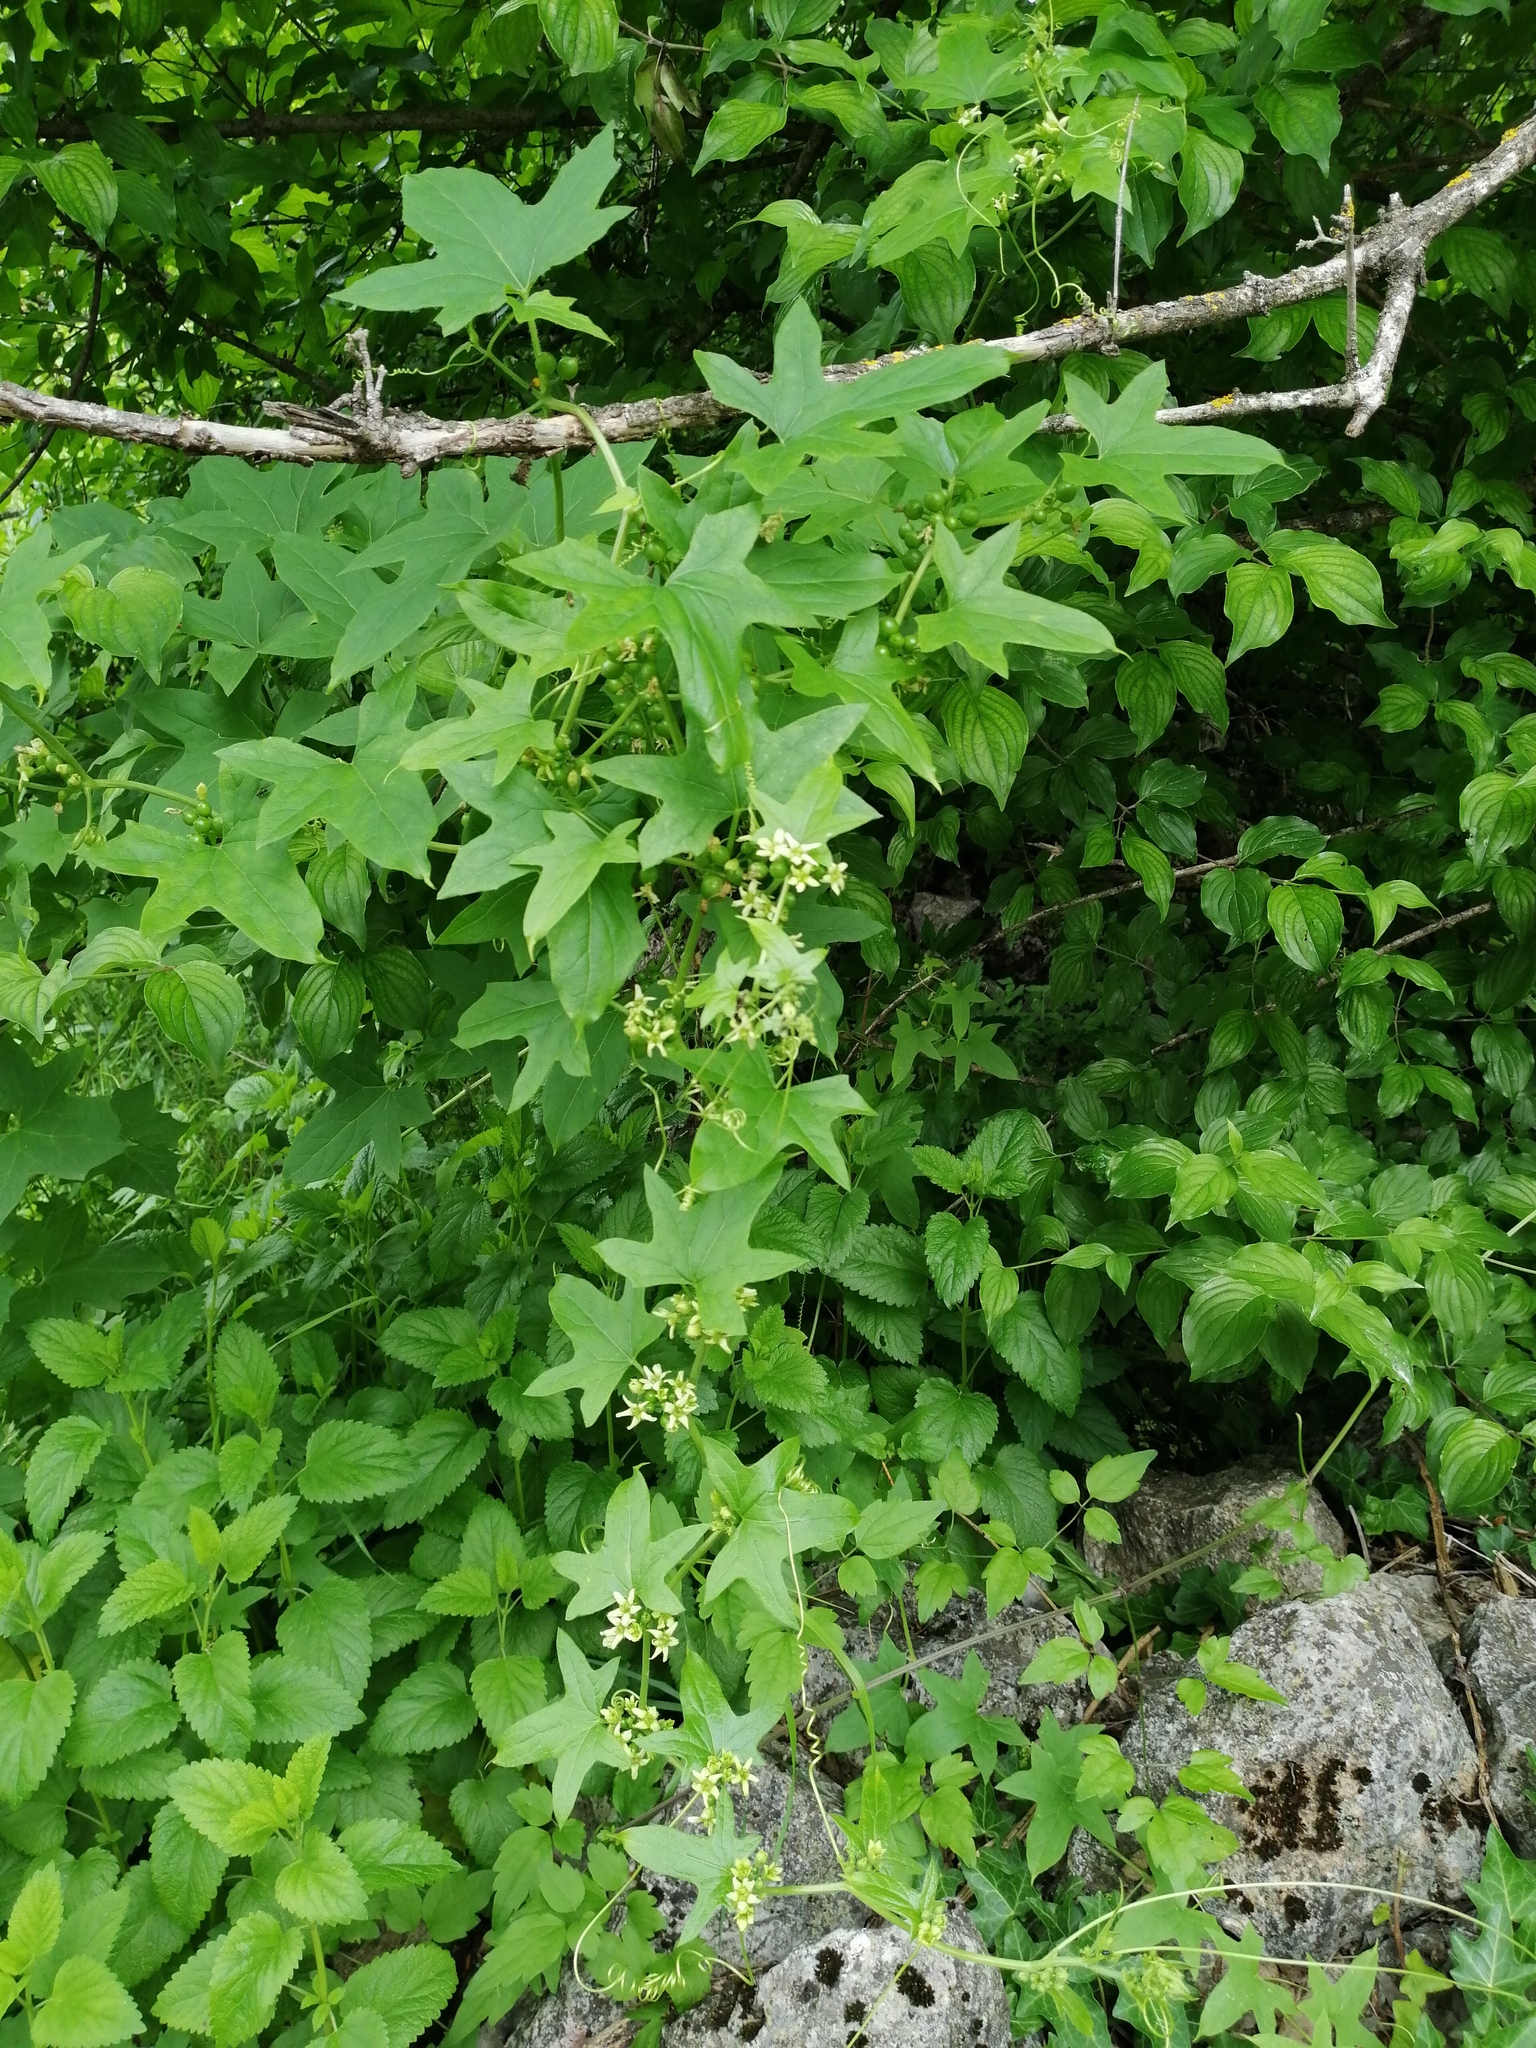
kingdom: Plantae
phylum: Tracheophyta
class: Magnoliopsida
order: Cucurbitales
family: Cucurbitaceae
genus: Echinocystis
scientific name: Echinocystis lobata
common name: Wild cucumber
